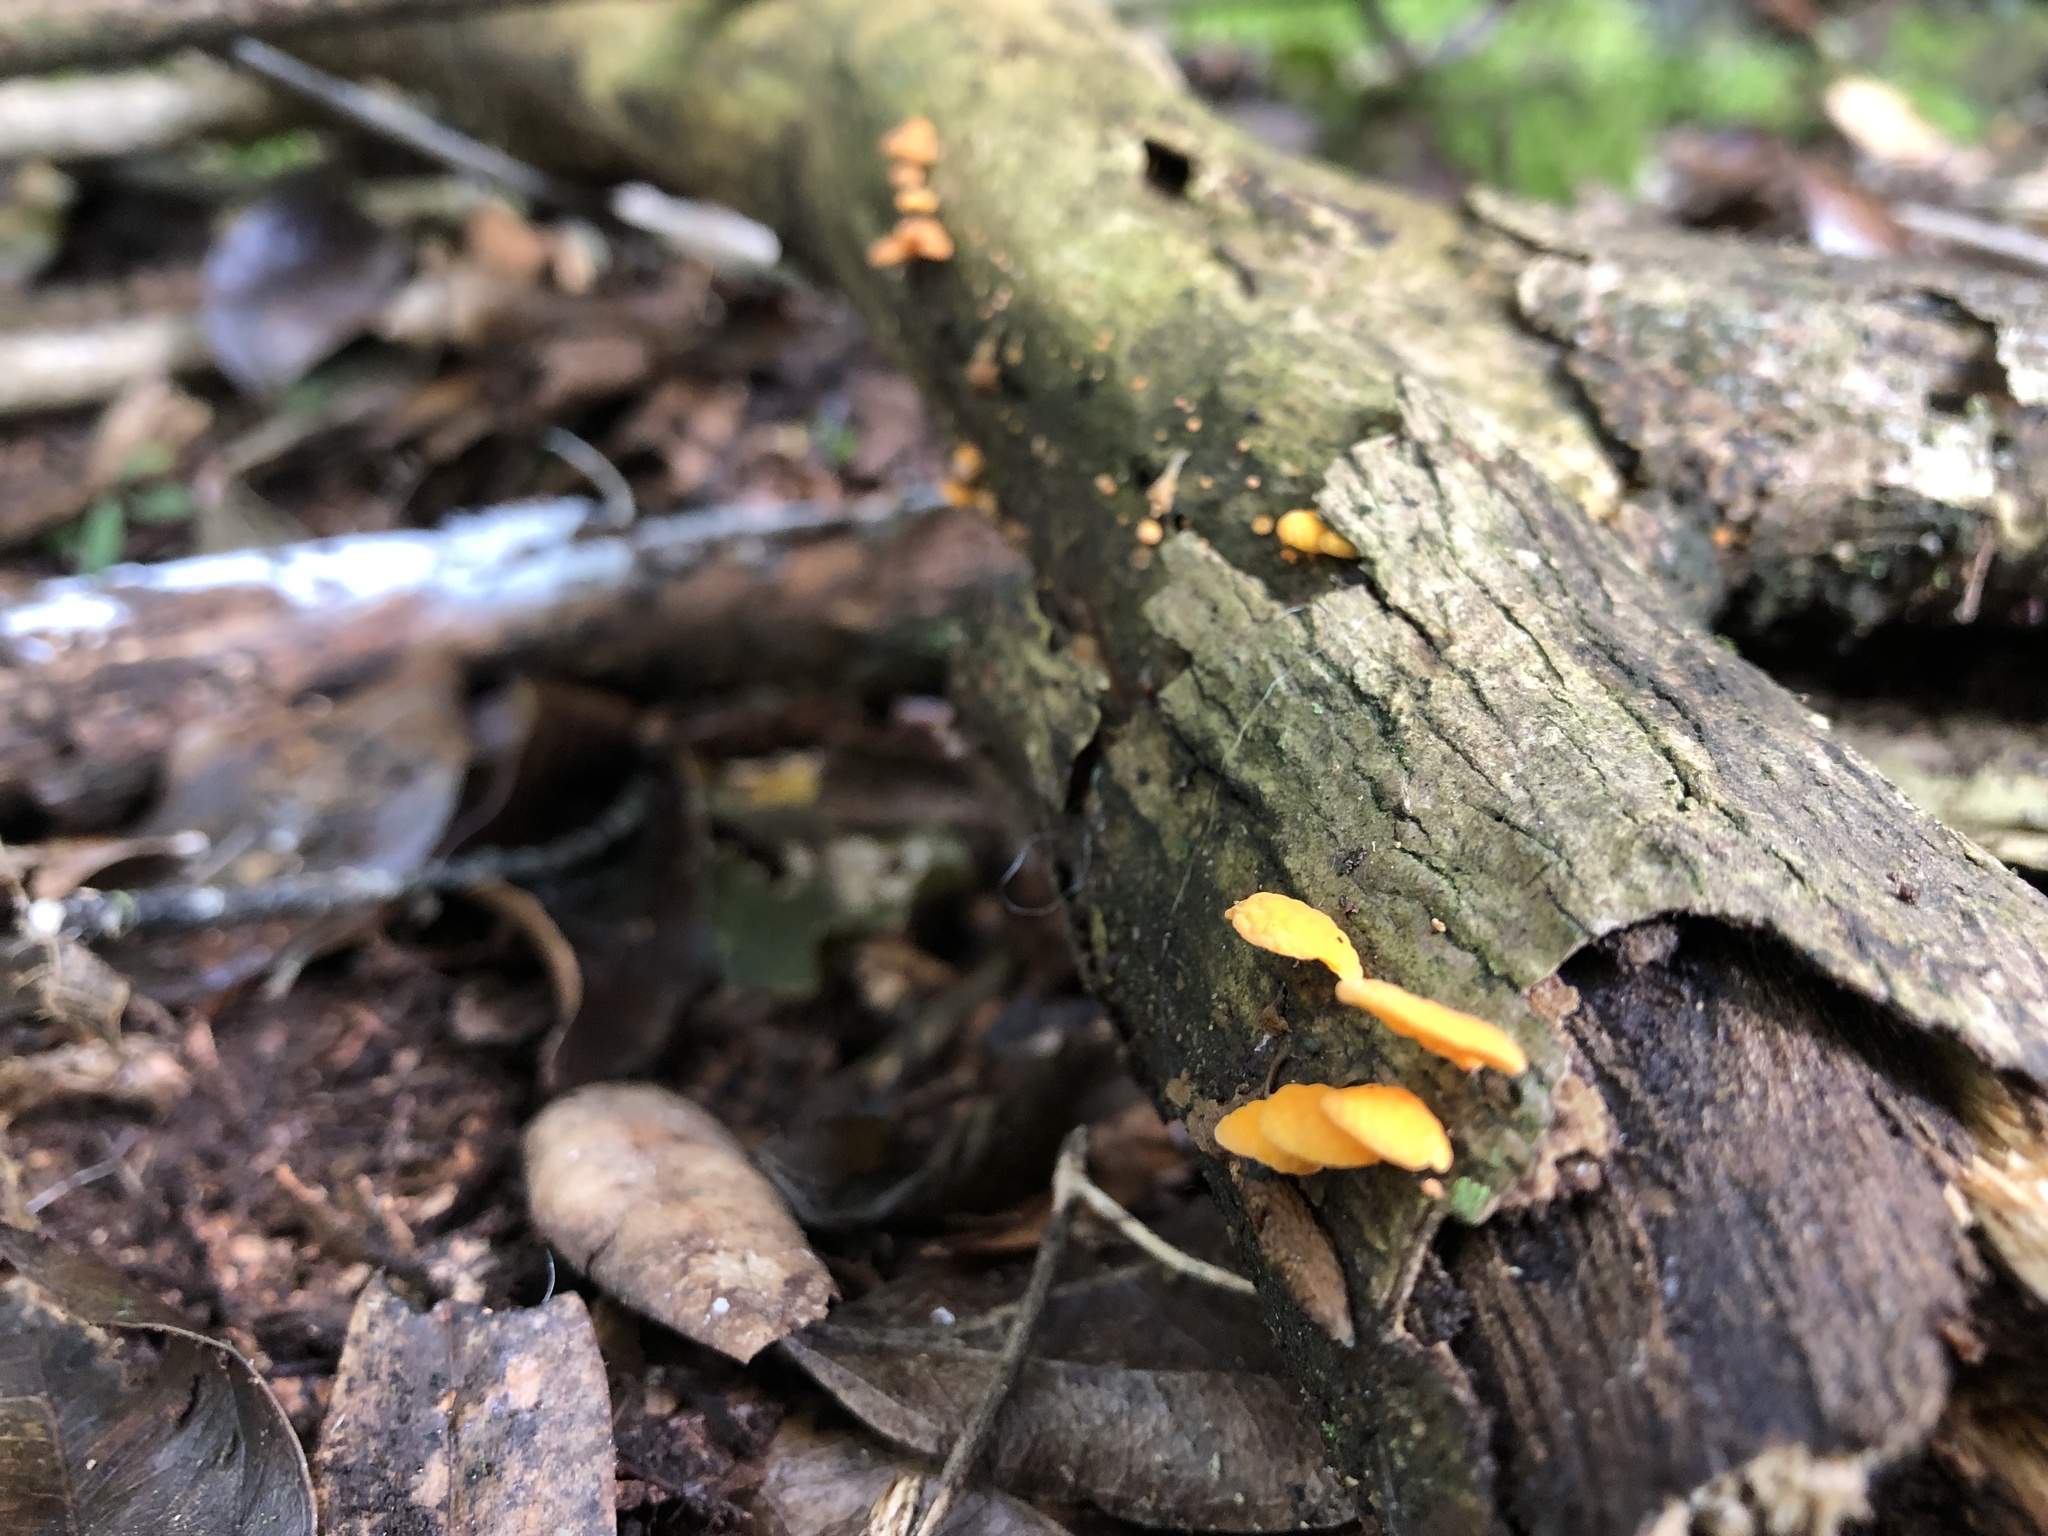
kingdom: Fungi
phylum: Basidiomycota
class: Agaricomycetes
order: Agaricales
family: Mycenaceae
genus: Favolaschia
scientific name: Favolaschia claudopus
